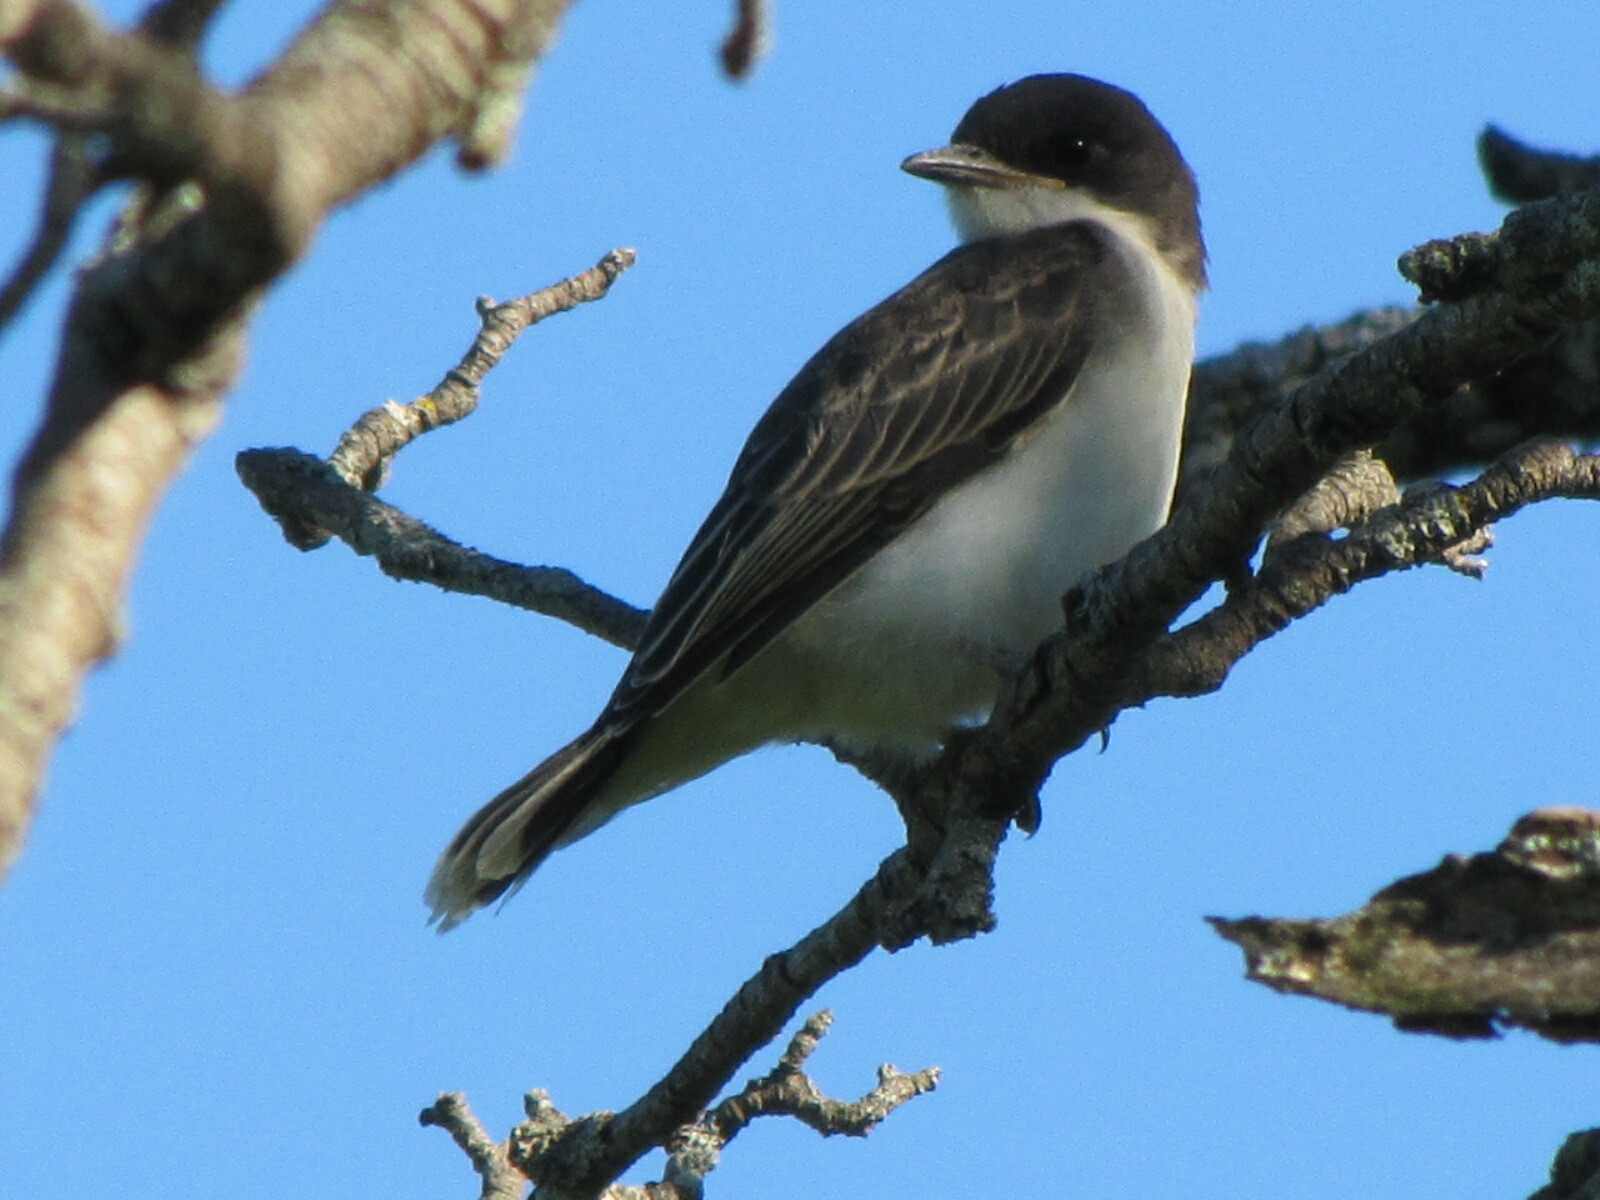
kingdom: Animalia
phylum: Chordata
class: Aves
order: Passeriformes
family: Tyrannidae
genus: Tyrannus
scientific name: Tyrannus tyrannus
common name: Eastern kingbird
